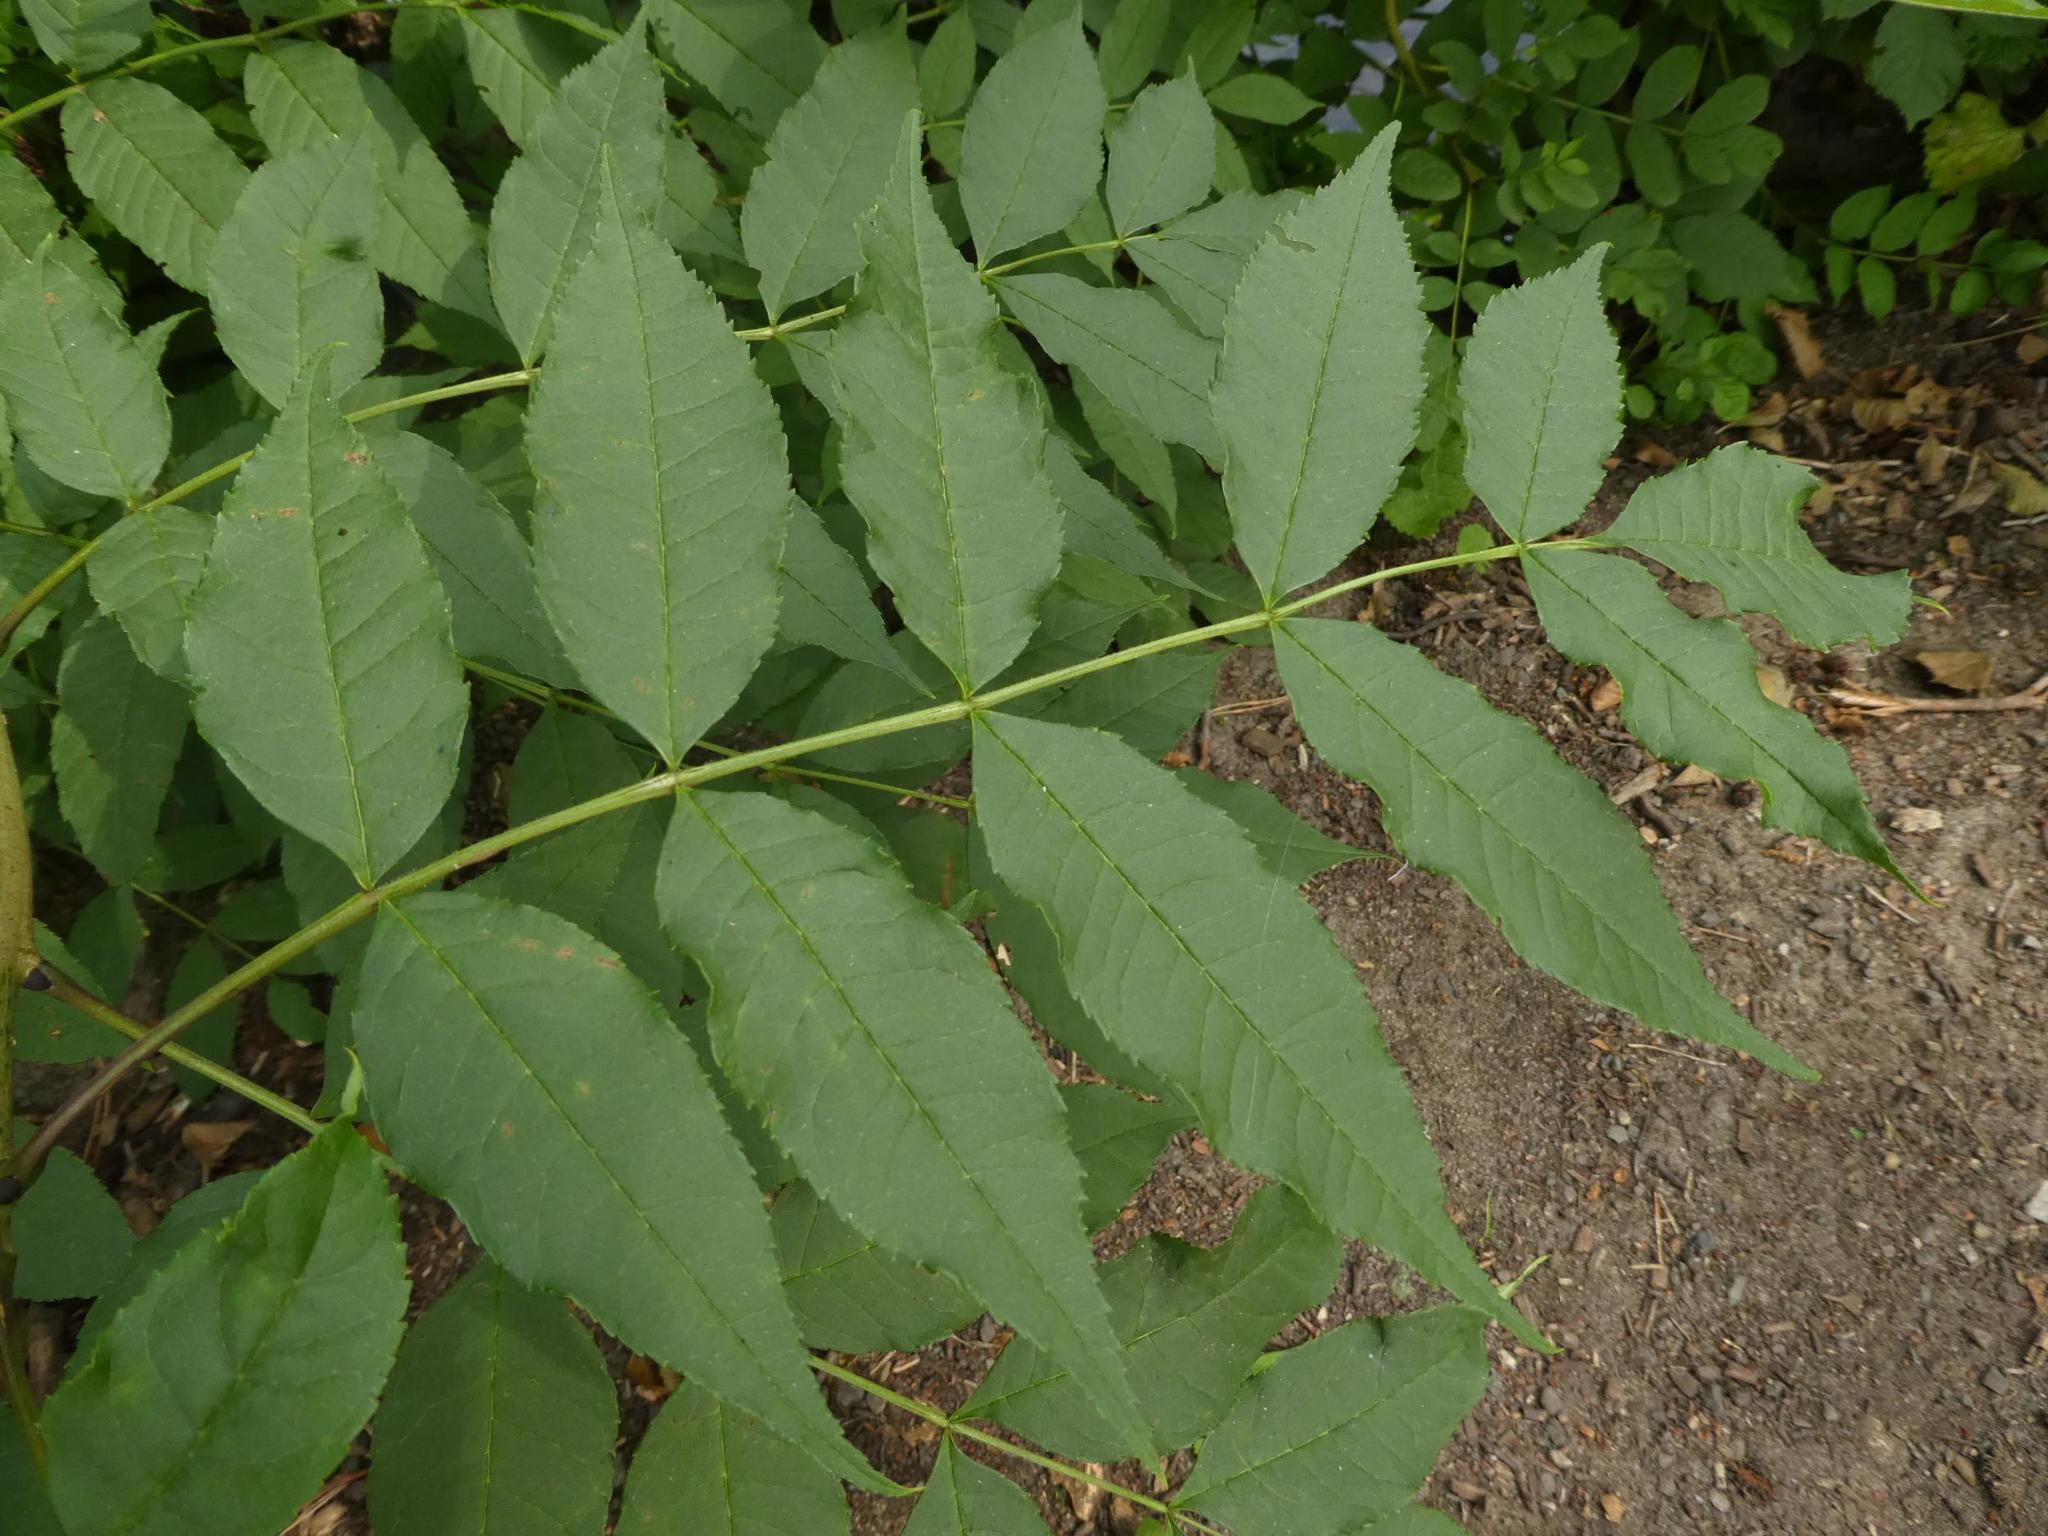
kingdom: Plantae
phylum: Tracheophyta
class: Magnoliopsida
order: Lamiales
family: Oleaceae
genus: Fraxinus
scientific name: Fraxinus excelsior
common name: European ash
